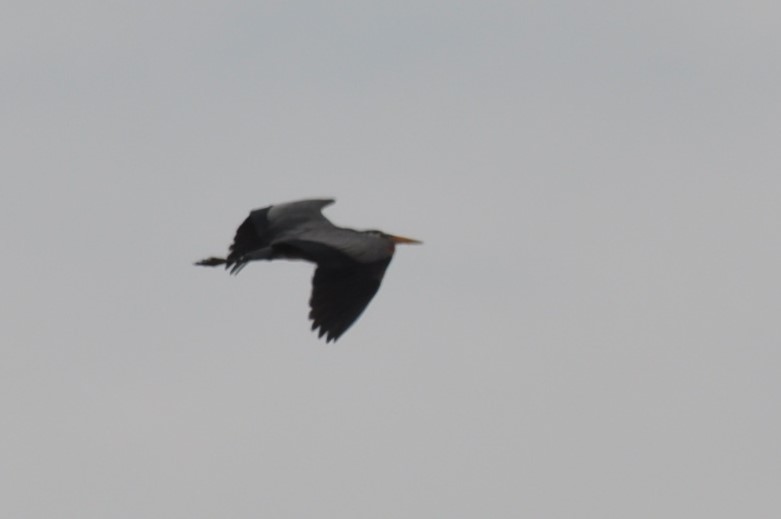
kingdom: Animalia
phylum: Chordata
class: Aves
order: Pelecaniformes
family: Ardeidae
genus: Ardea
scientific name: Ardea herodias
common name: Great blue heron
